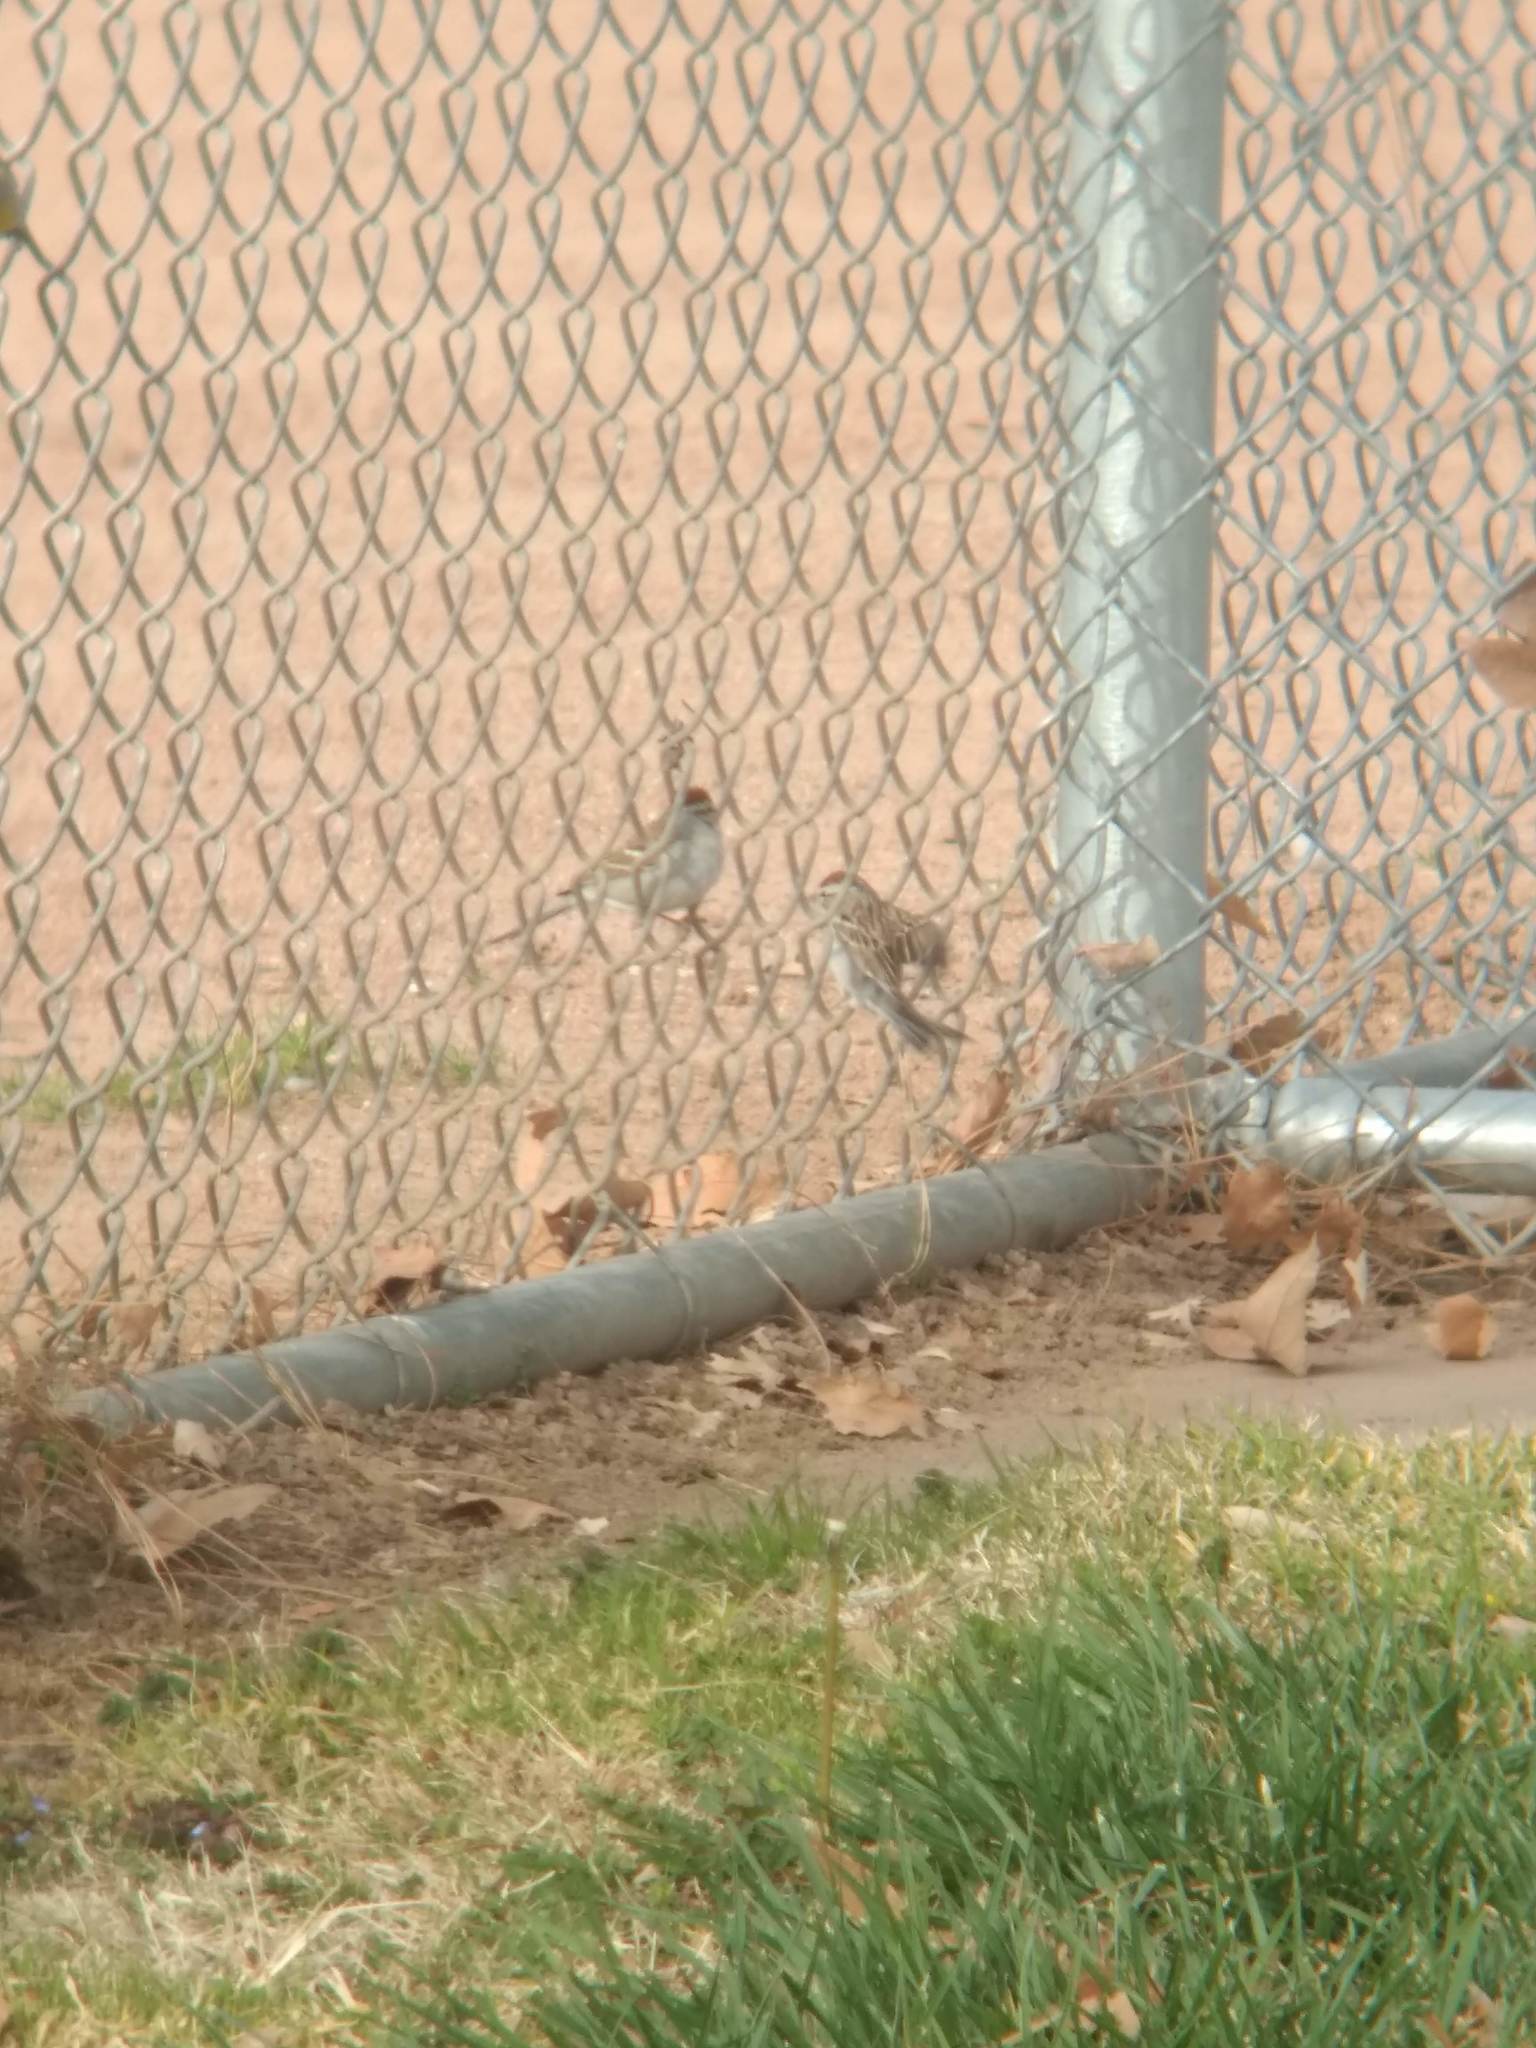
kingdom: Animalia
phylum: Chordata
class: Aves
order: Passeriformes
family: Passerellidae
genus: Spizella
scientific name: Spizella passerina
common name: Chipping sparrow
